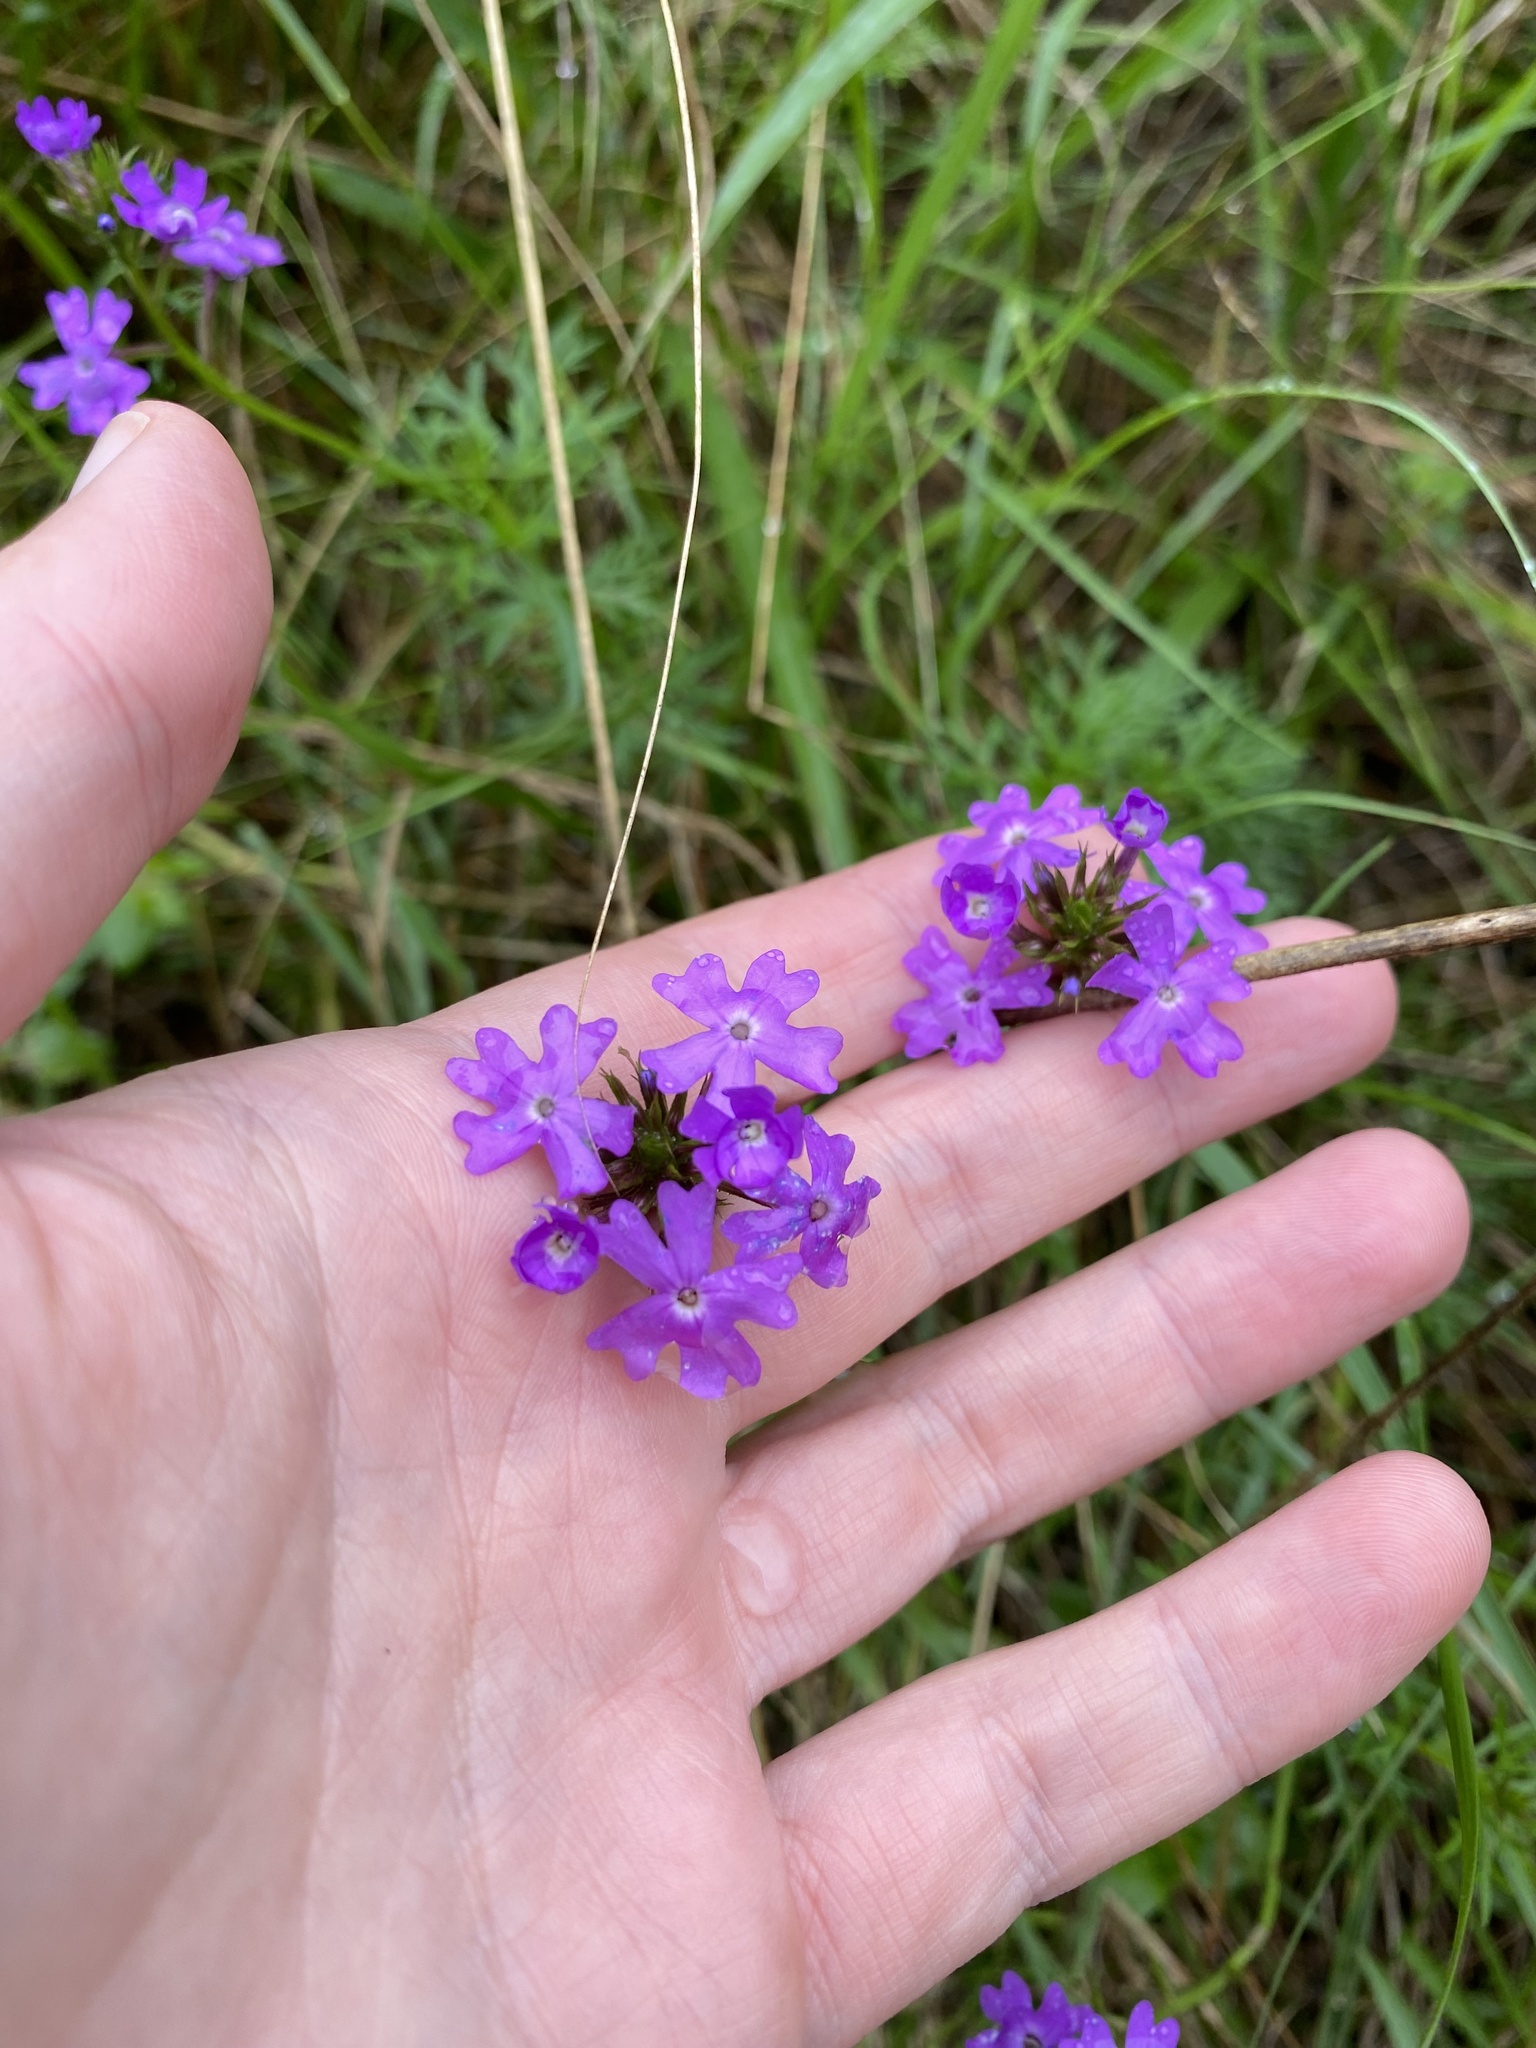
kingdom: Plantae
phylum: Tracheophyta
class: Magnoliopsida
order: Lamiales
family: Verbenaceae
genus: Verbena
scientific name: Verbena aristigera
